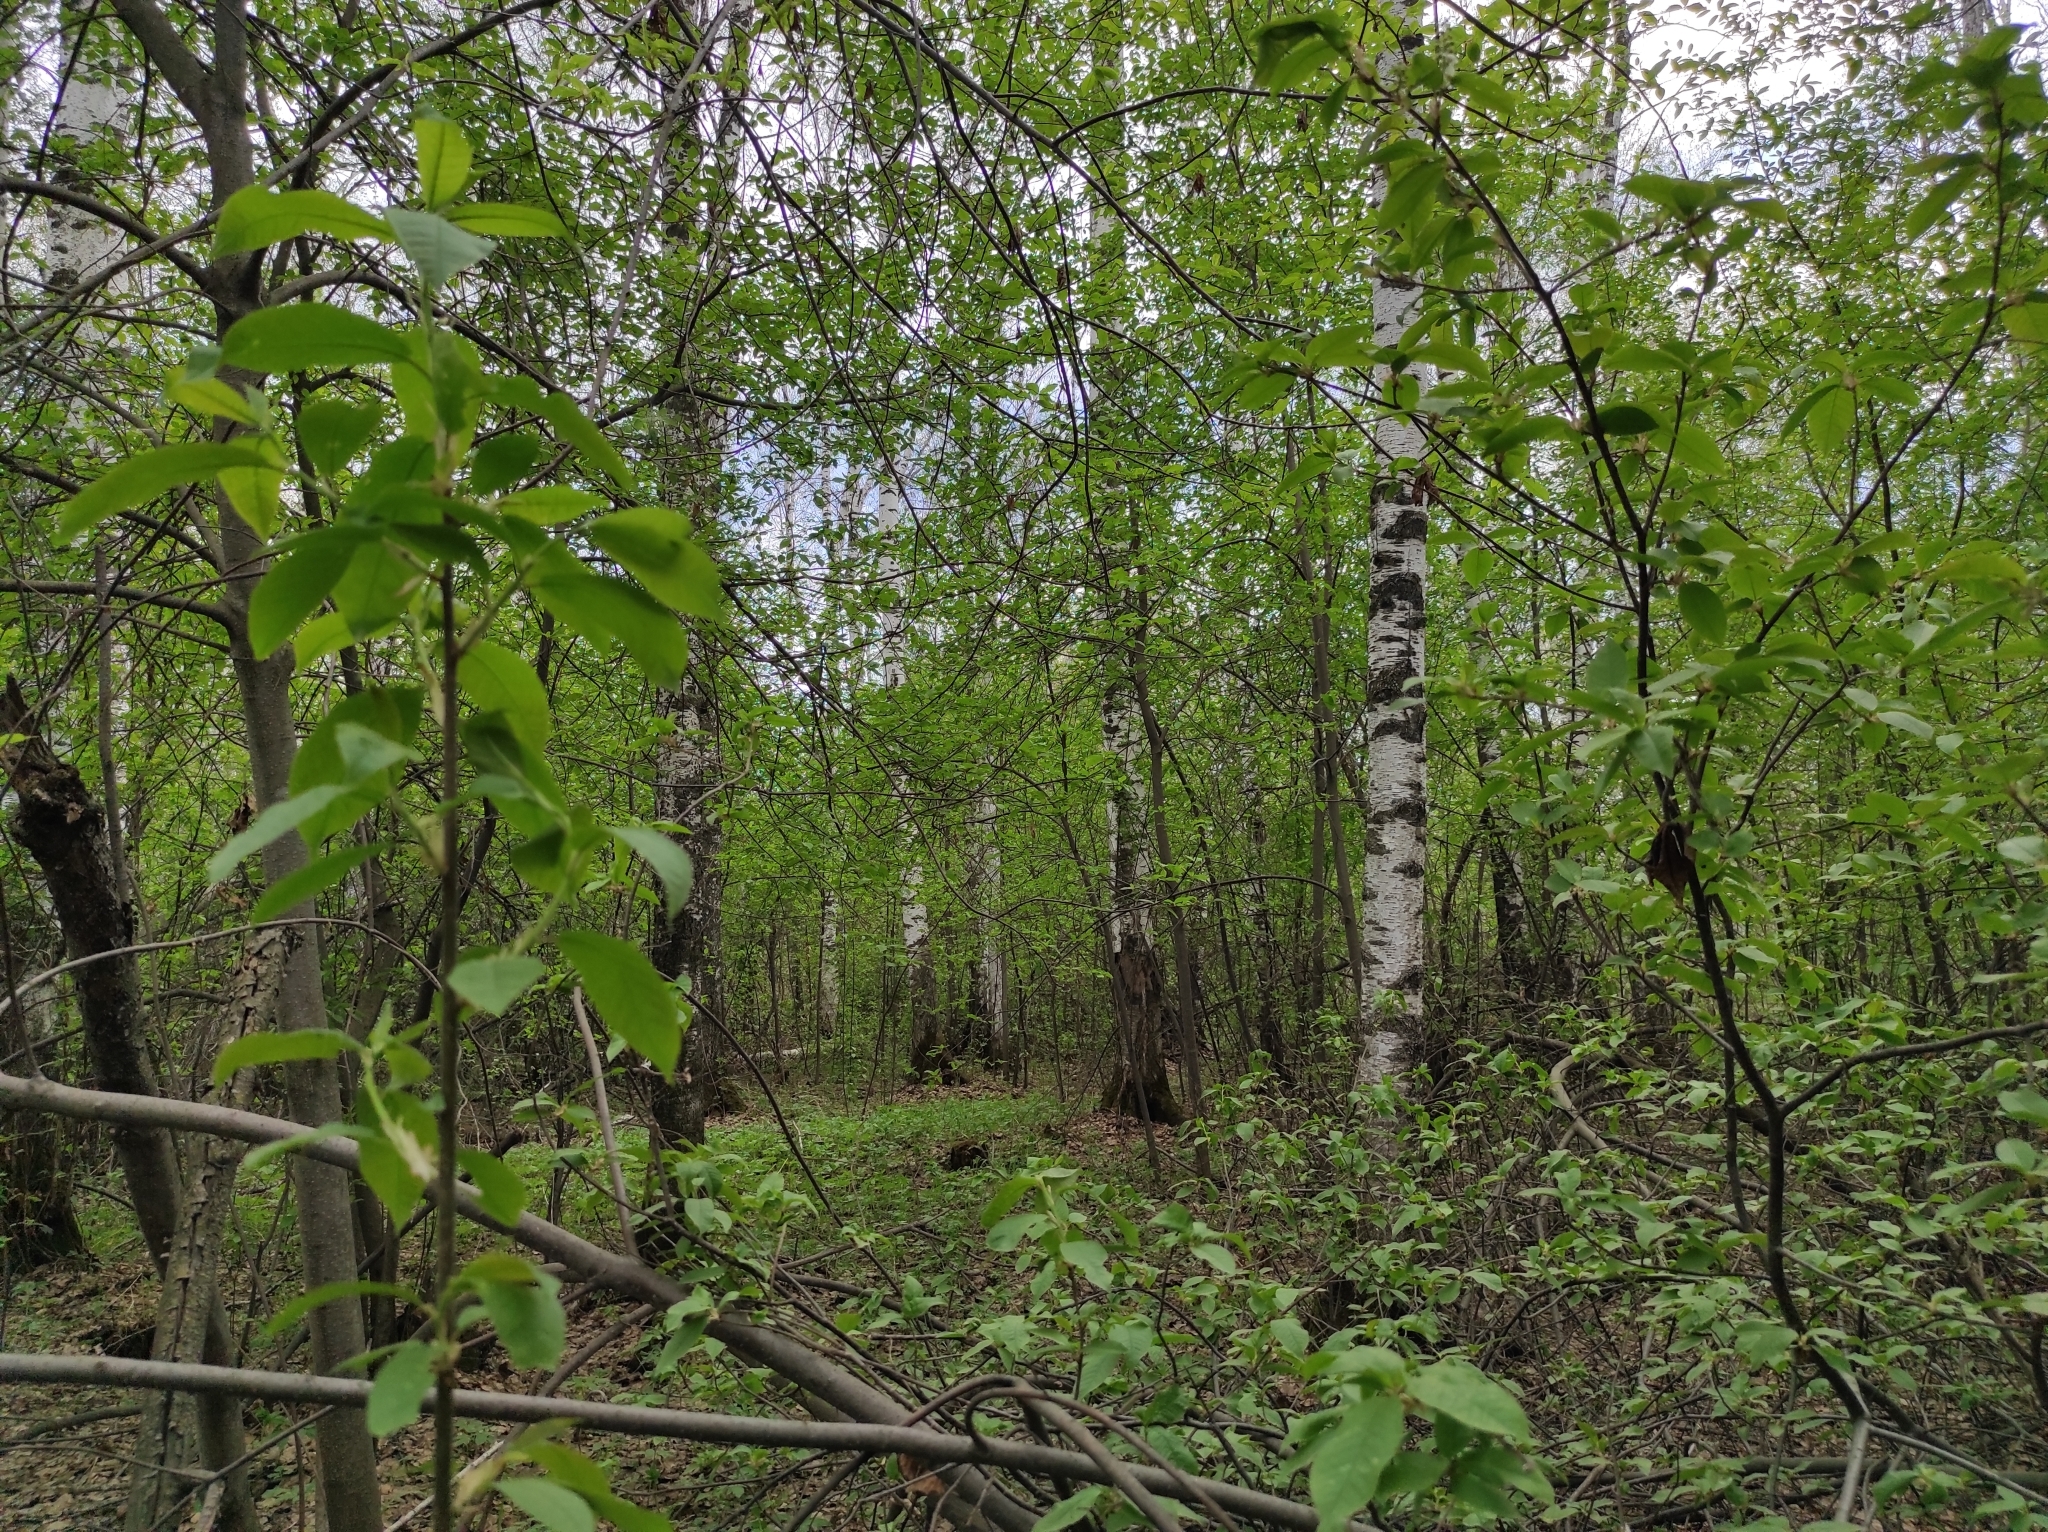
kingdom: Fungi
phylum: Ascomycota
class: Pezizomycetes
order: Pezizales
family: Morchellaceae
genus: Verpa
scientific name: Verpa bohemica
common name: Wrinkled thimble morel
